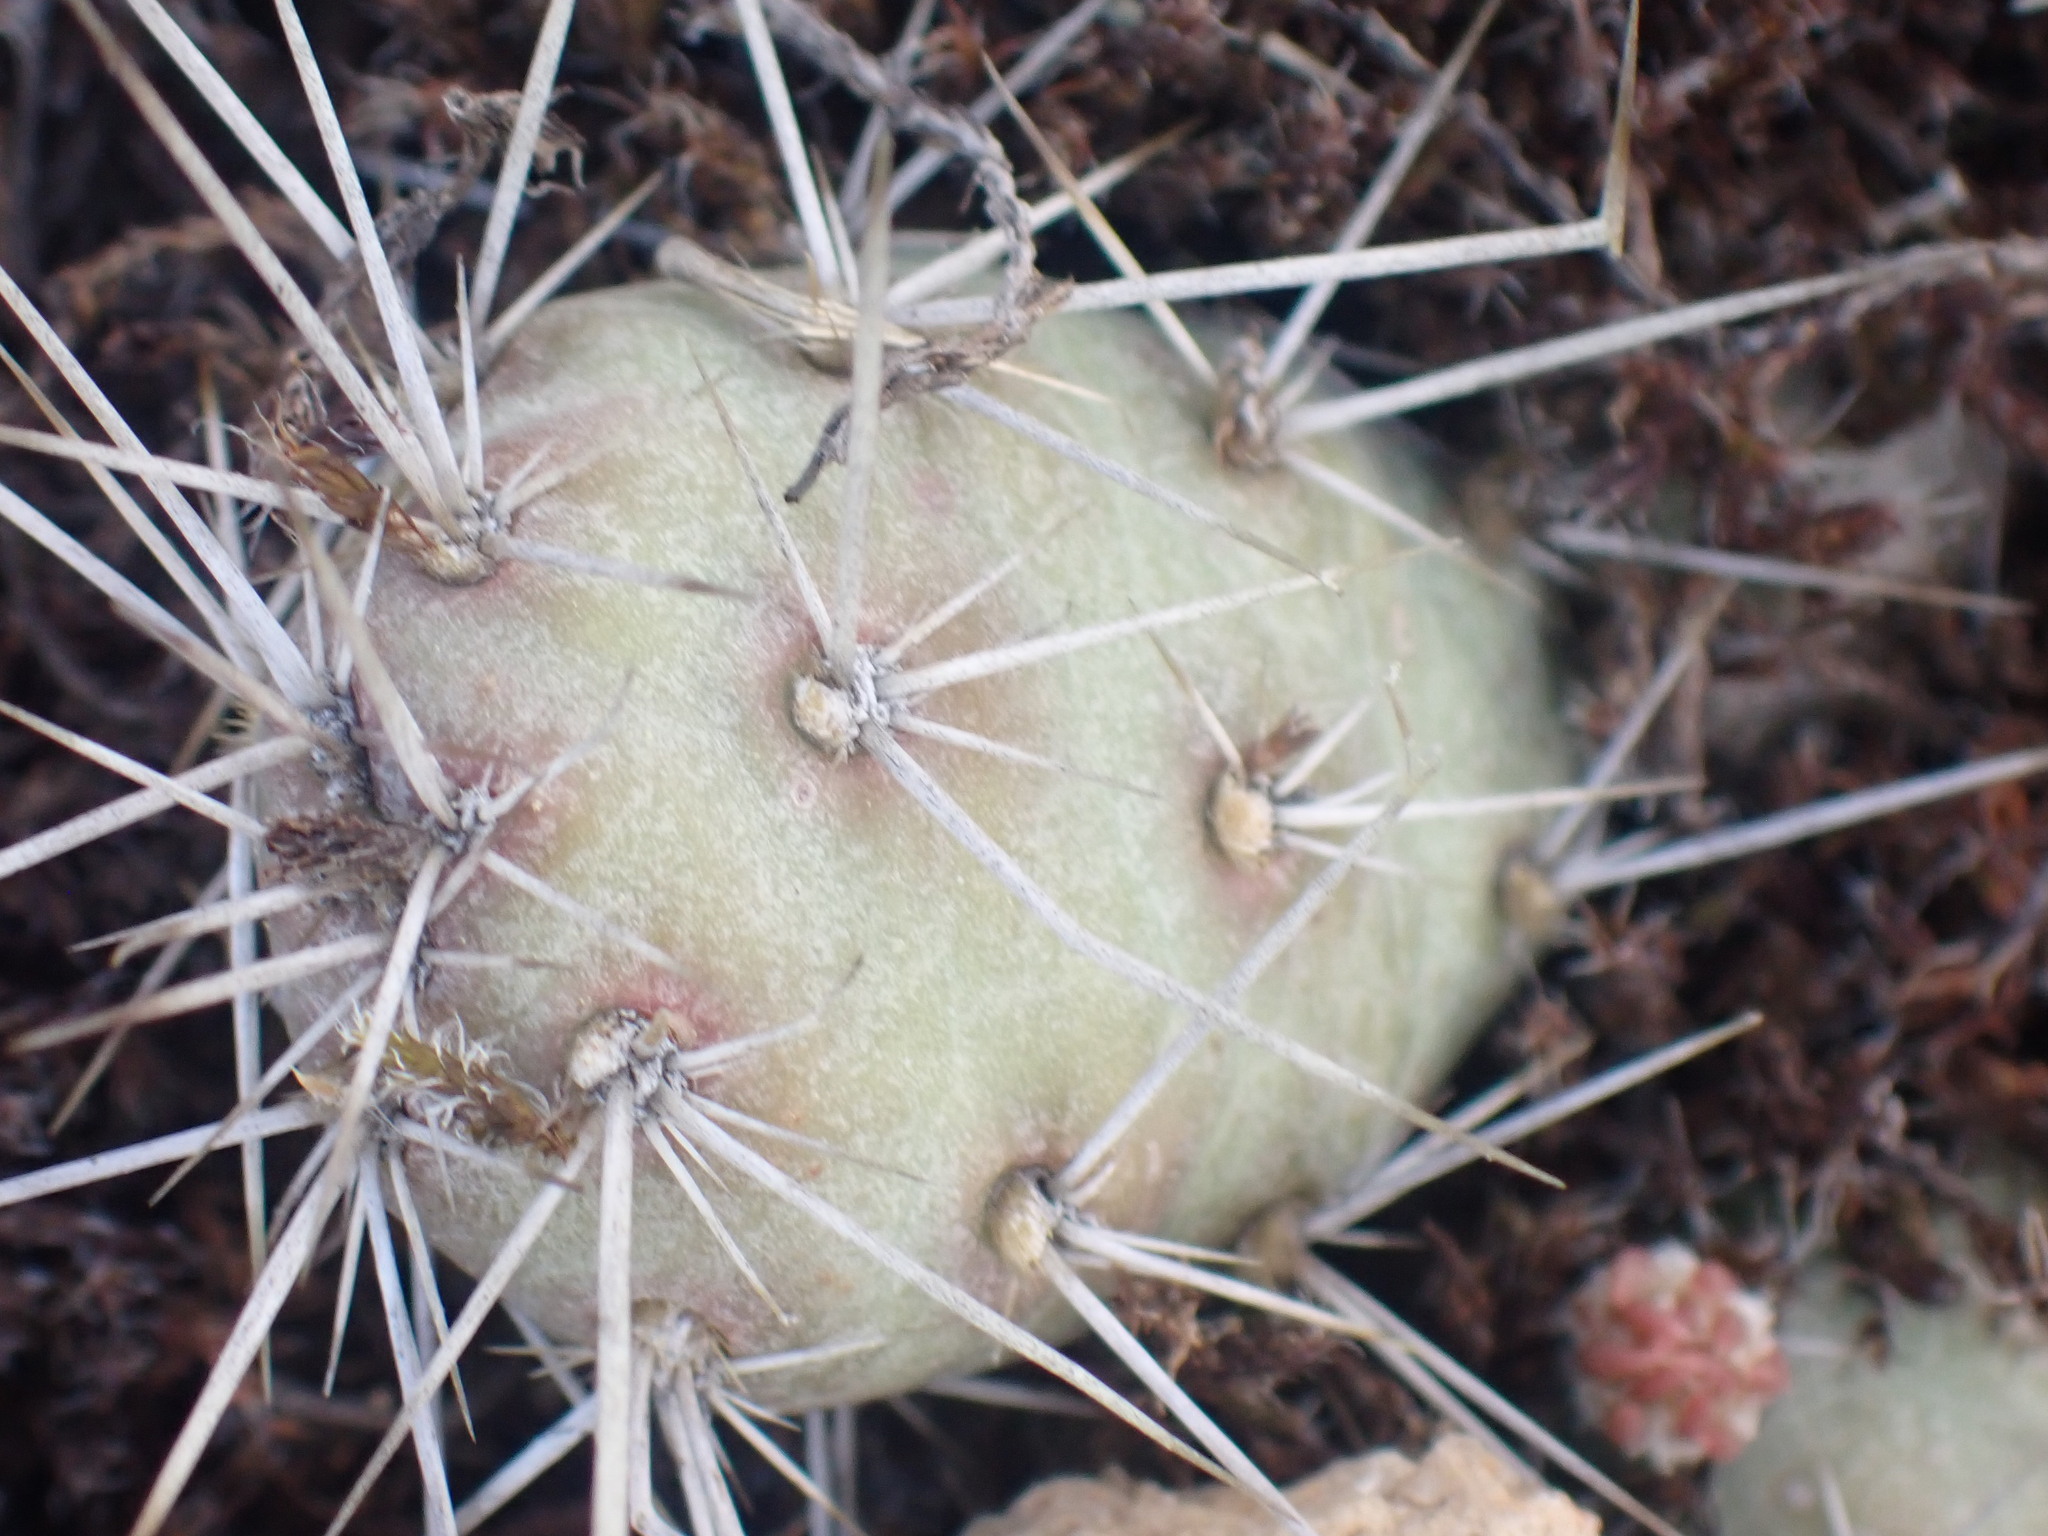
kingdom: Plantae
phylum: Tracheophyta
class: Magnoliopsida
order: Caryophyllales
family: Cactaceae
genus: Opuntia
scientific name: Opuntia fragilis
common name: Brittle cactus
